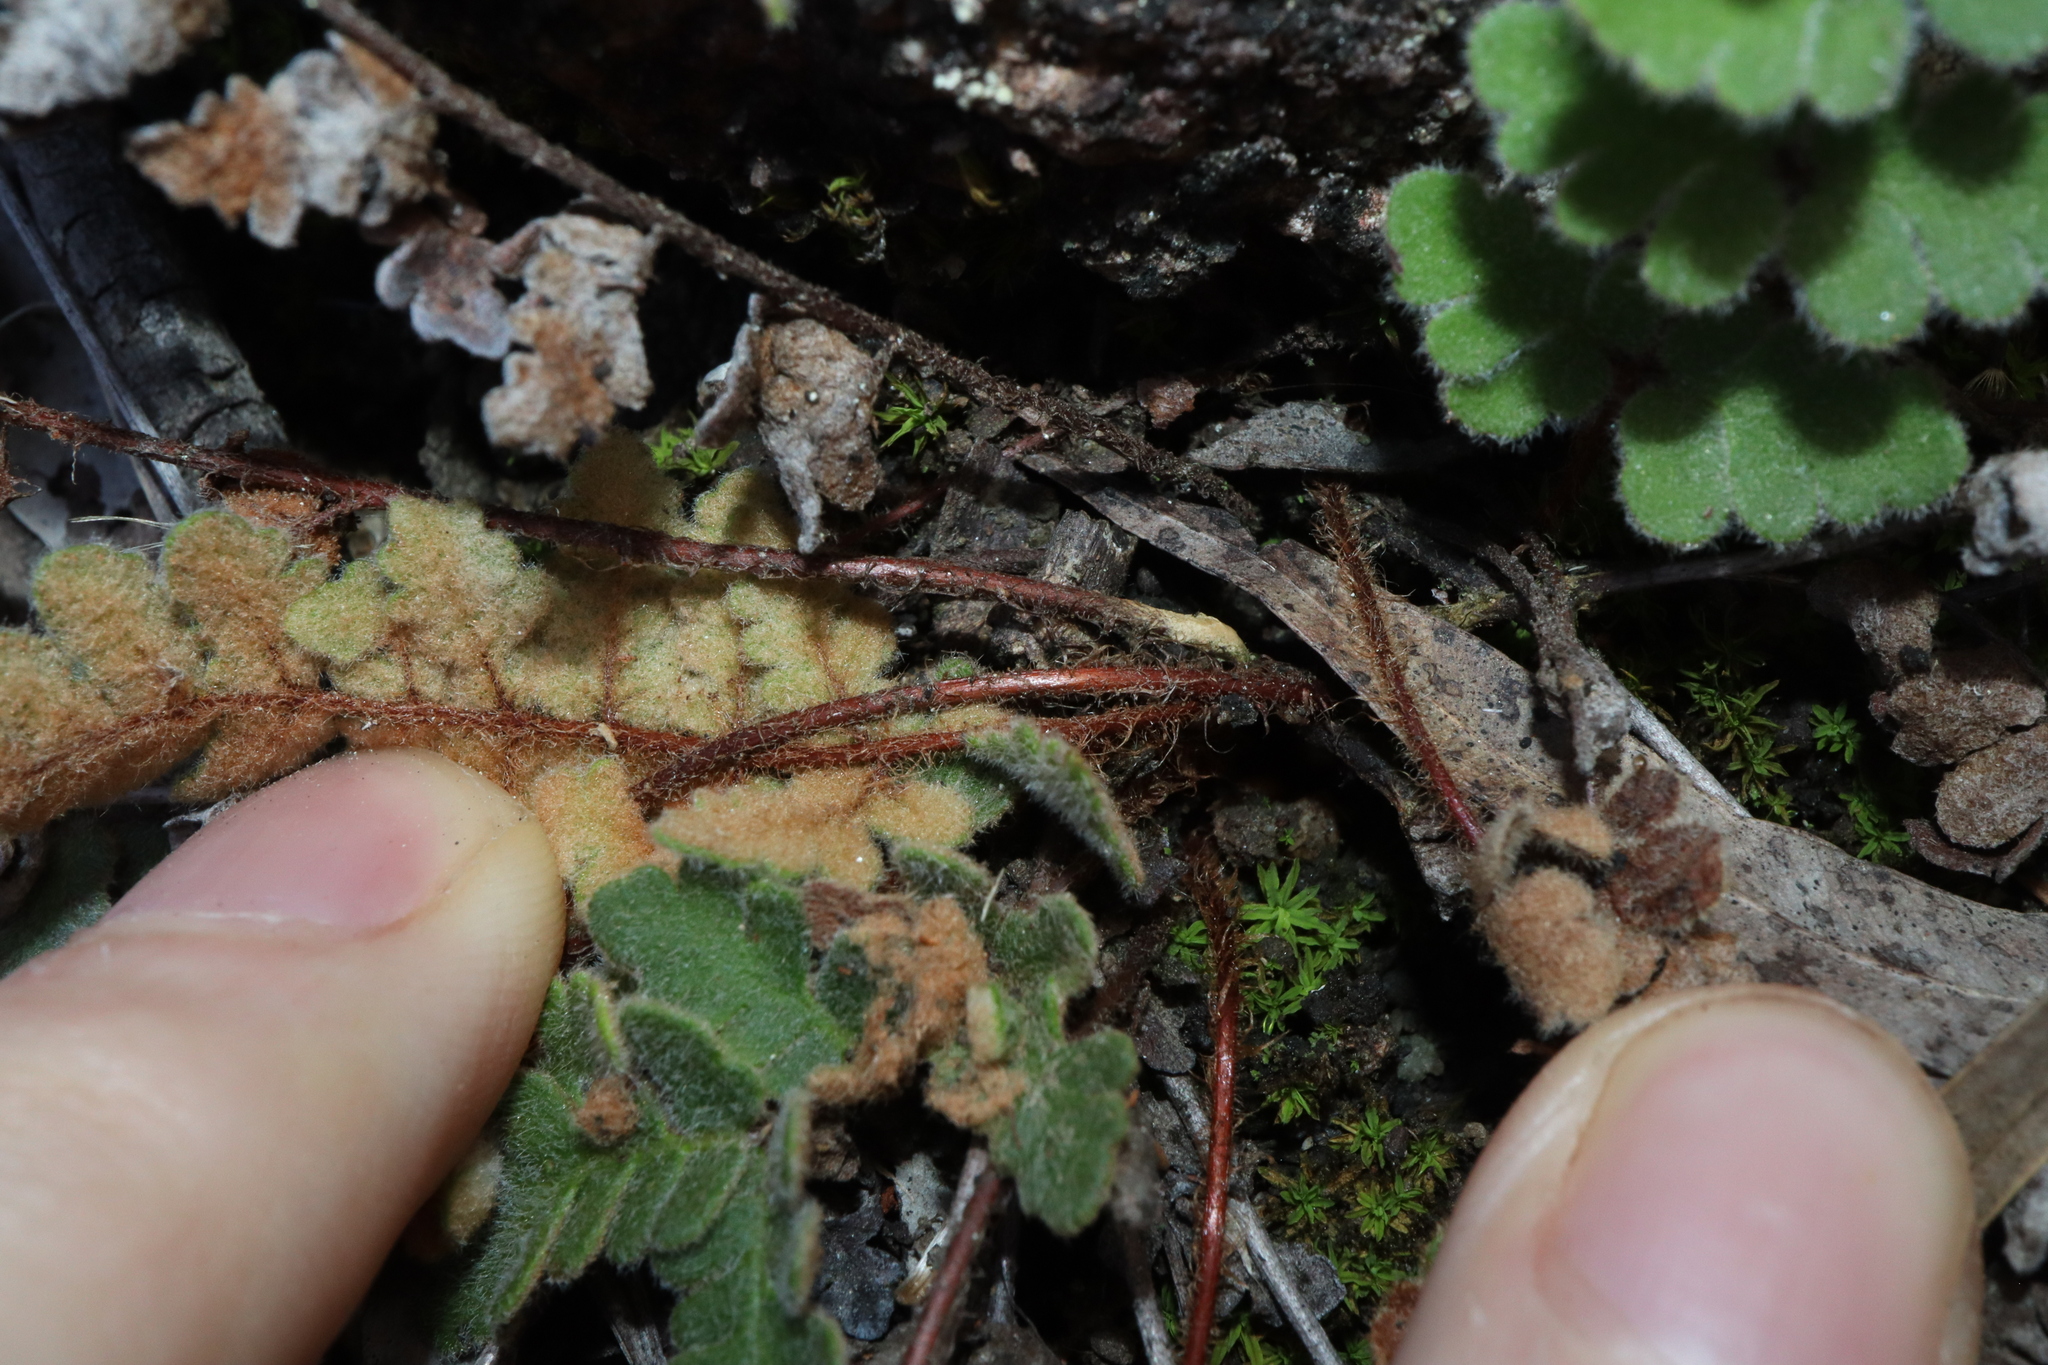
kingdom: Plantae
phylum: Tracheophyta
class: Polypodiopsida
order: Polypodiales
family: Pteridaceae
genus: Cheilanthes
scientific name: Cheilanthes brownii
